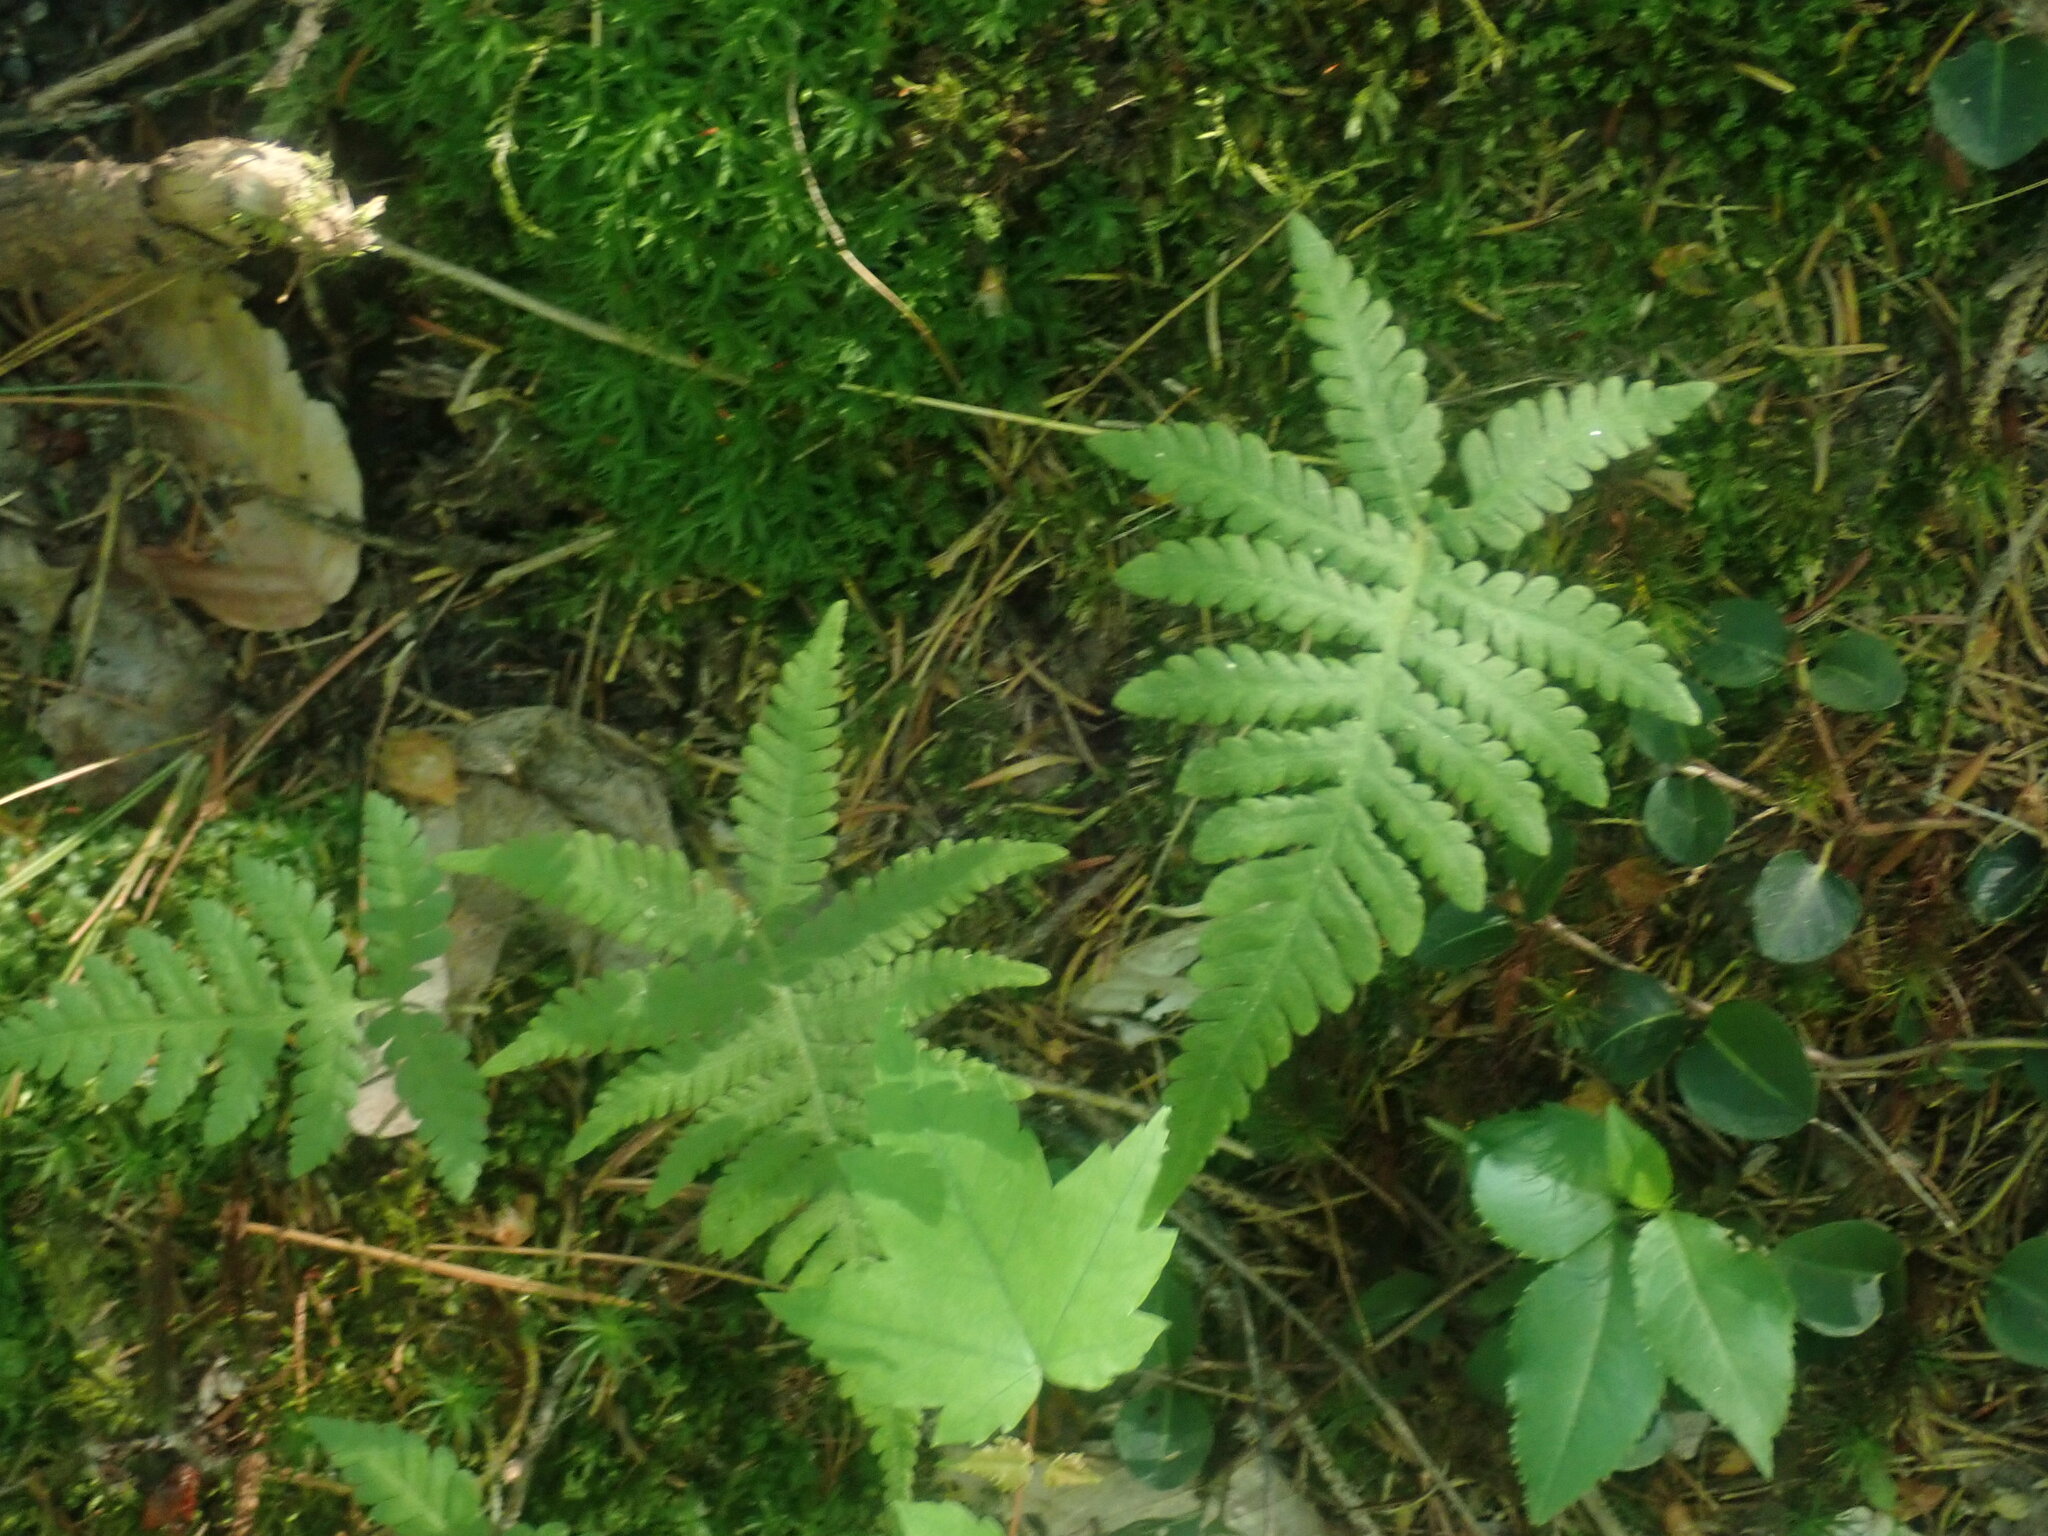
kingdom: Plantae
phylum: Tracheophyta
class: Polypodiopsida
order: Polypodiales
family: Thelypteridaceae
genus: Phegopteris
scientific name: Phegopteris connectilis
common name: Beech fern
